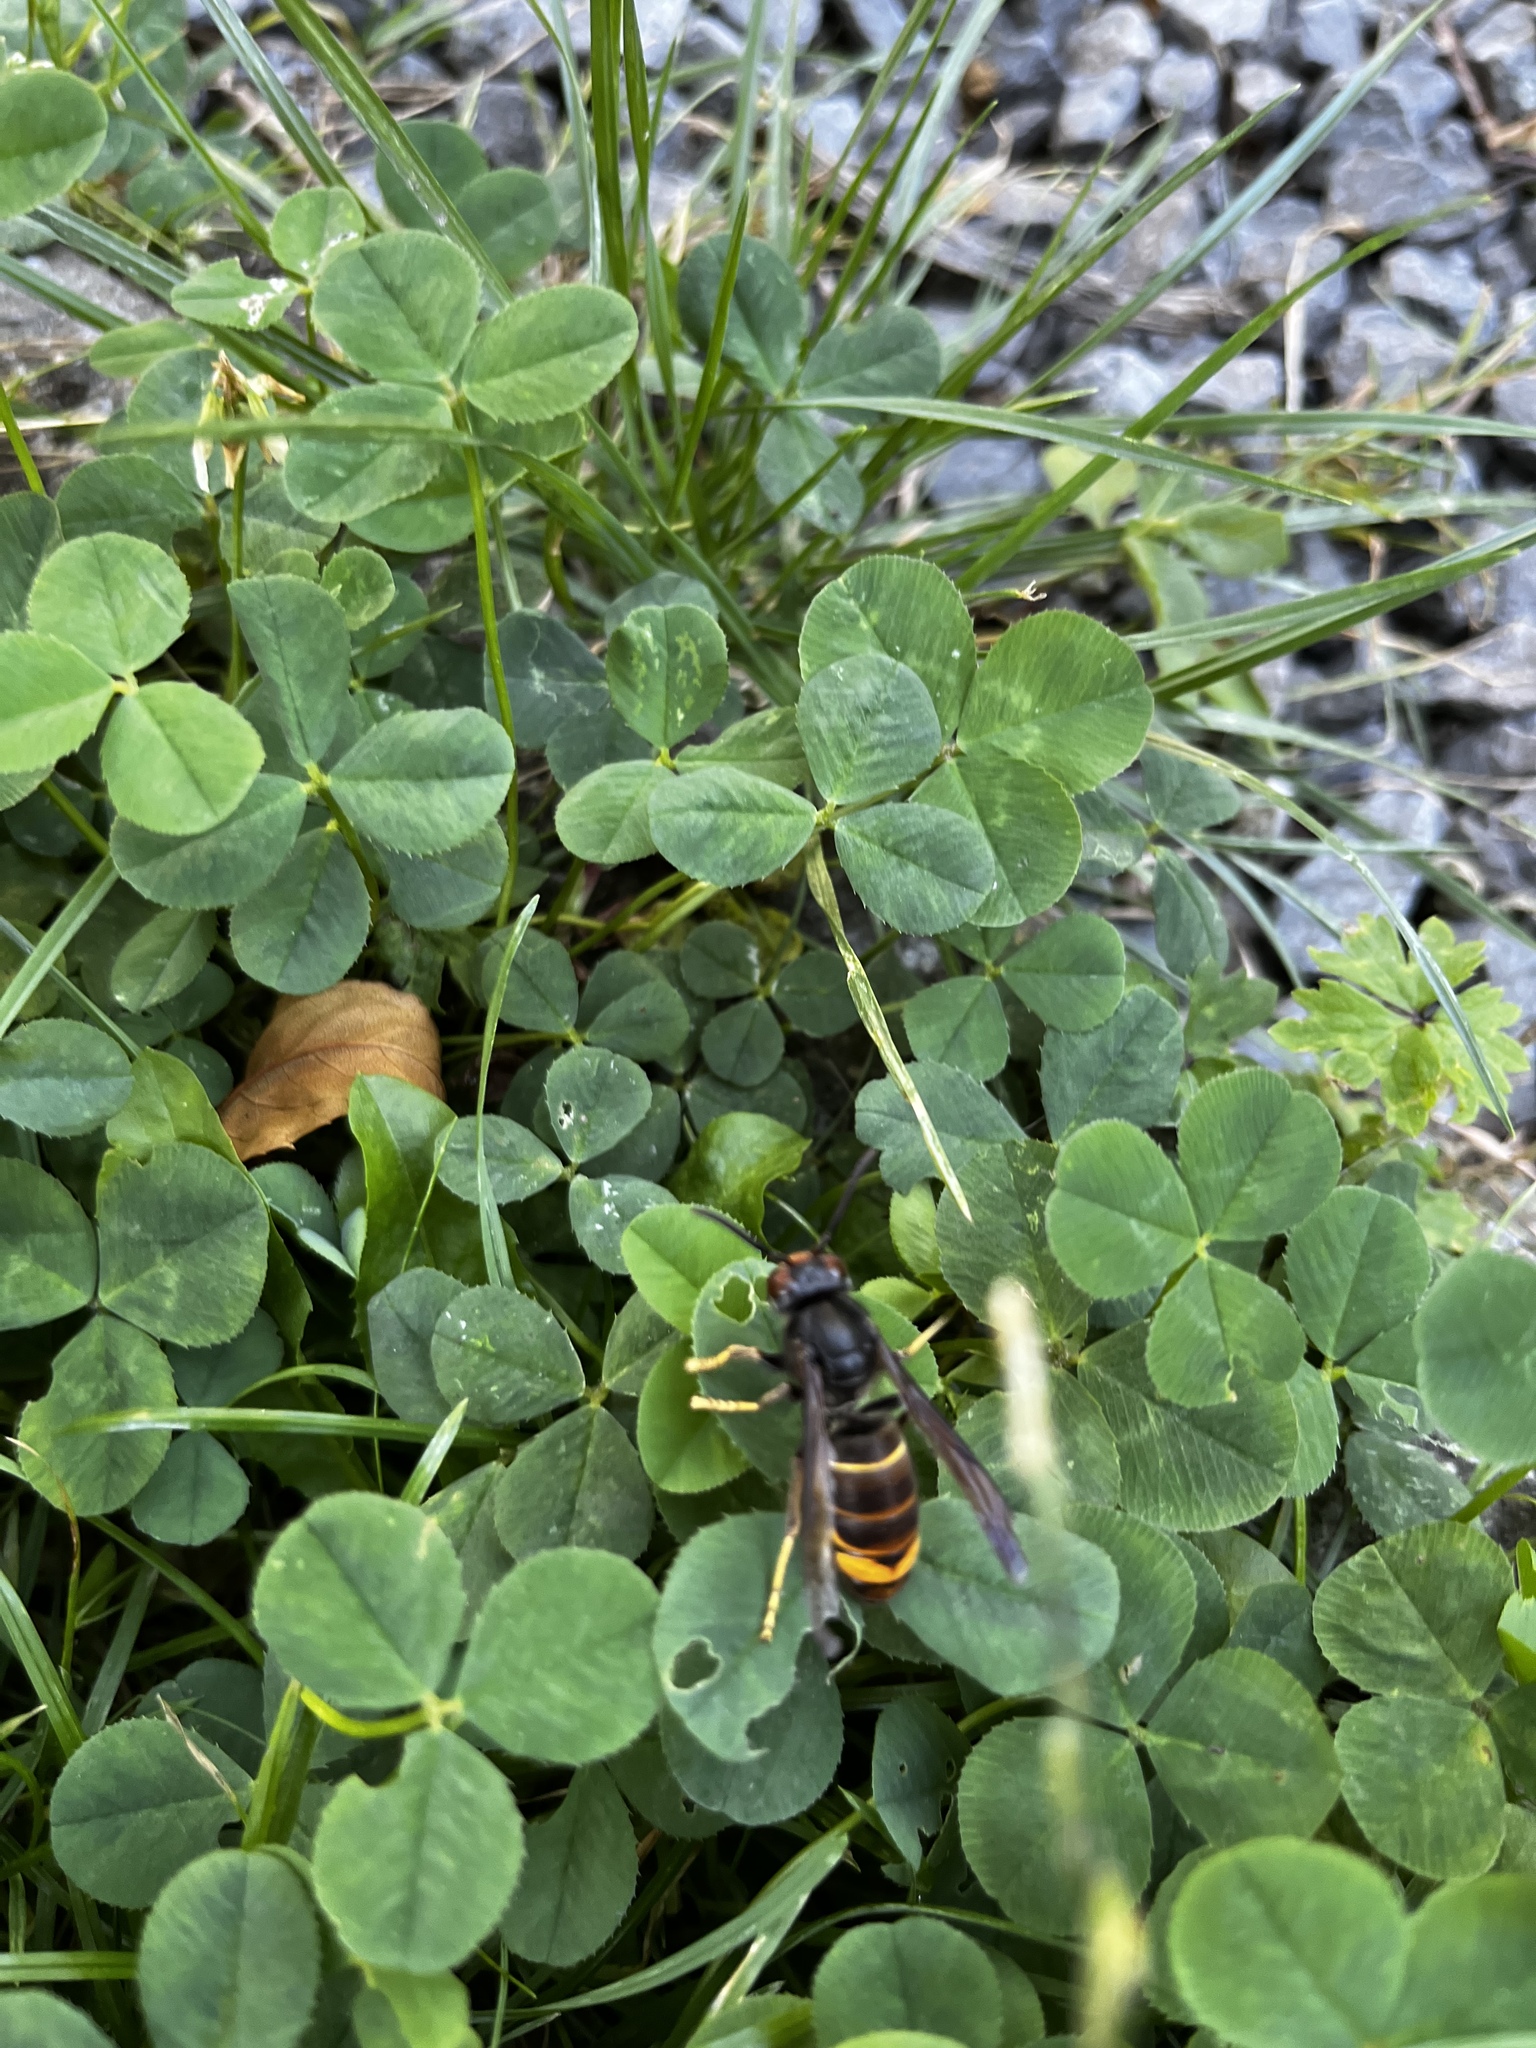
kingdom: Animalia
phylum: Arthropoda
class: Insecta
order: Hymenoptera
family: Vespidae
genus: Vespa
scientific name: Vespa velutina
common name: Asian hornet
